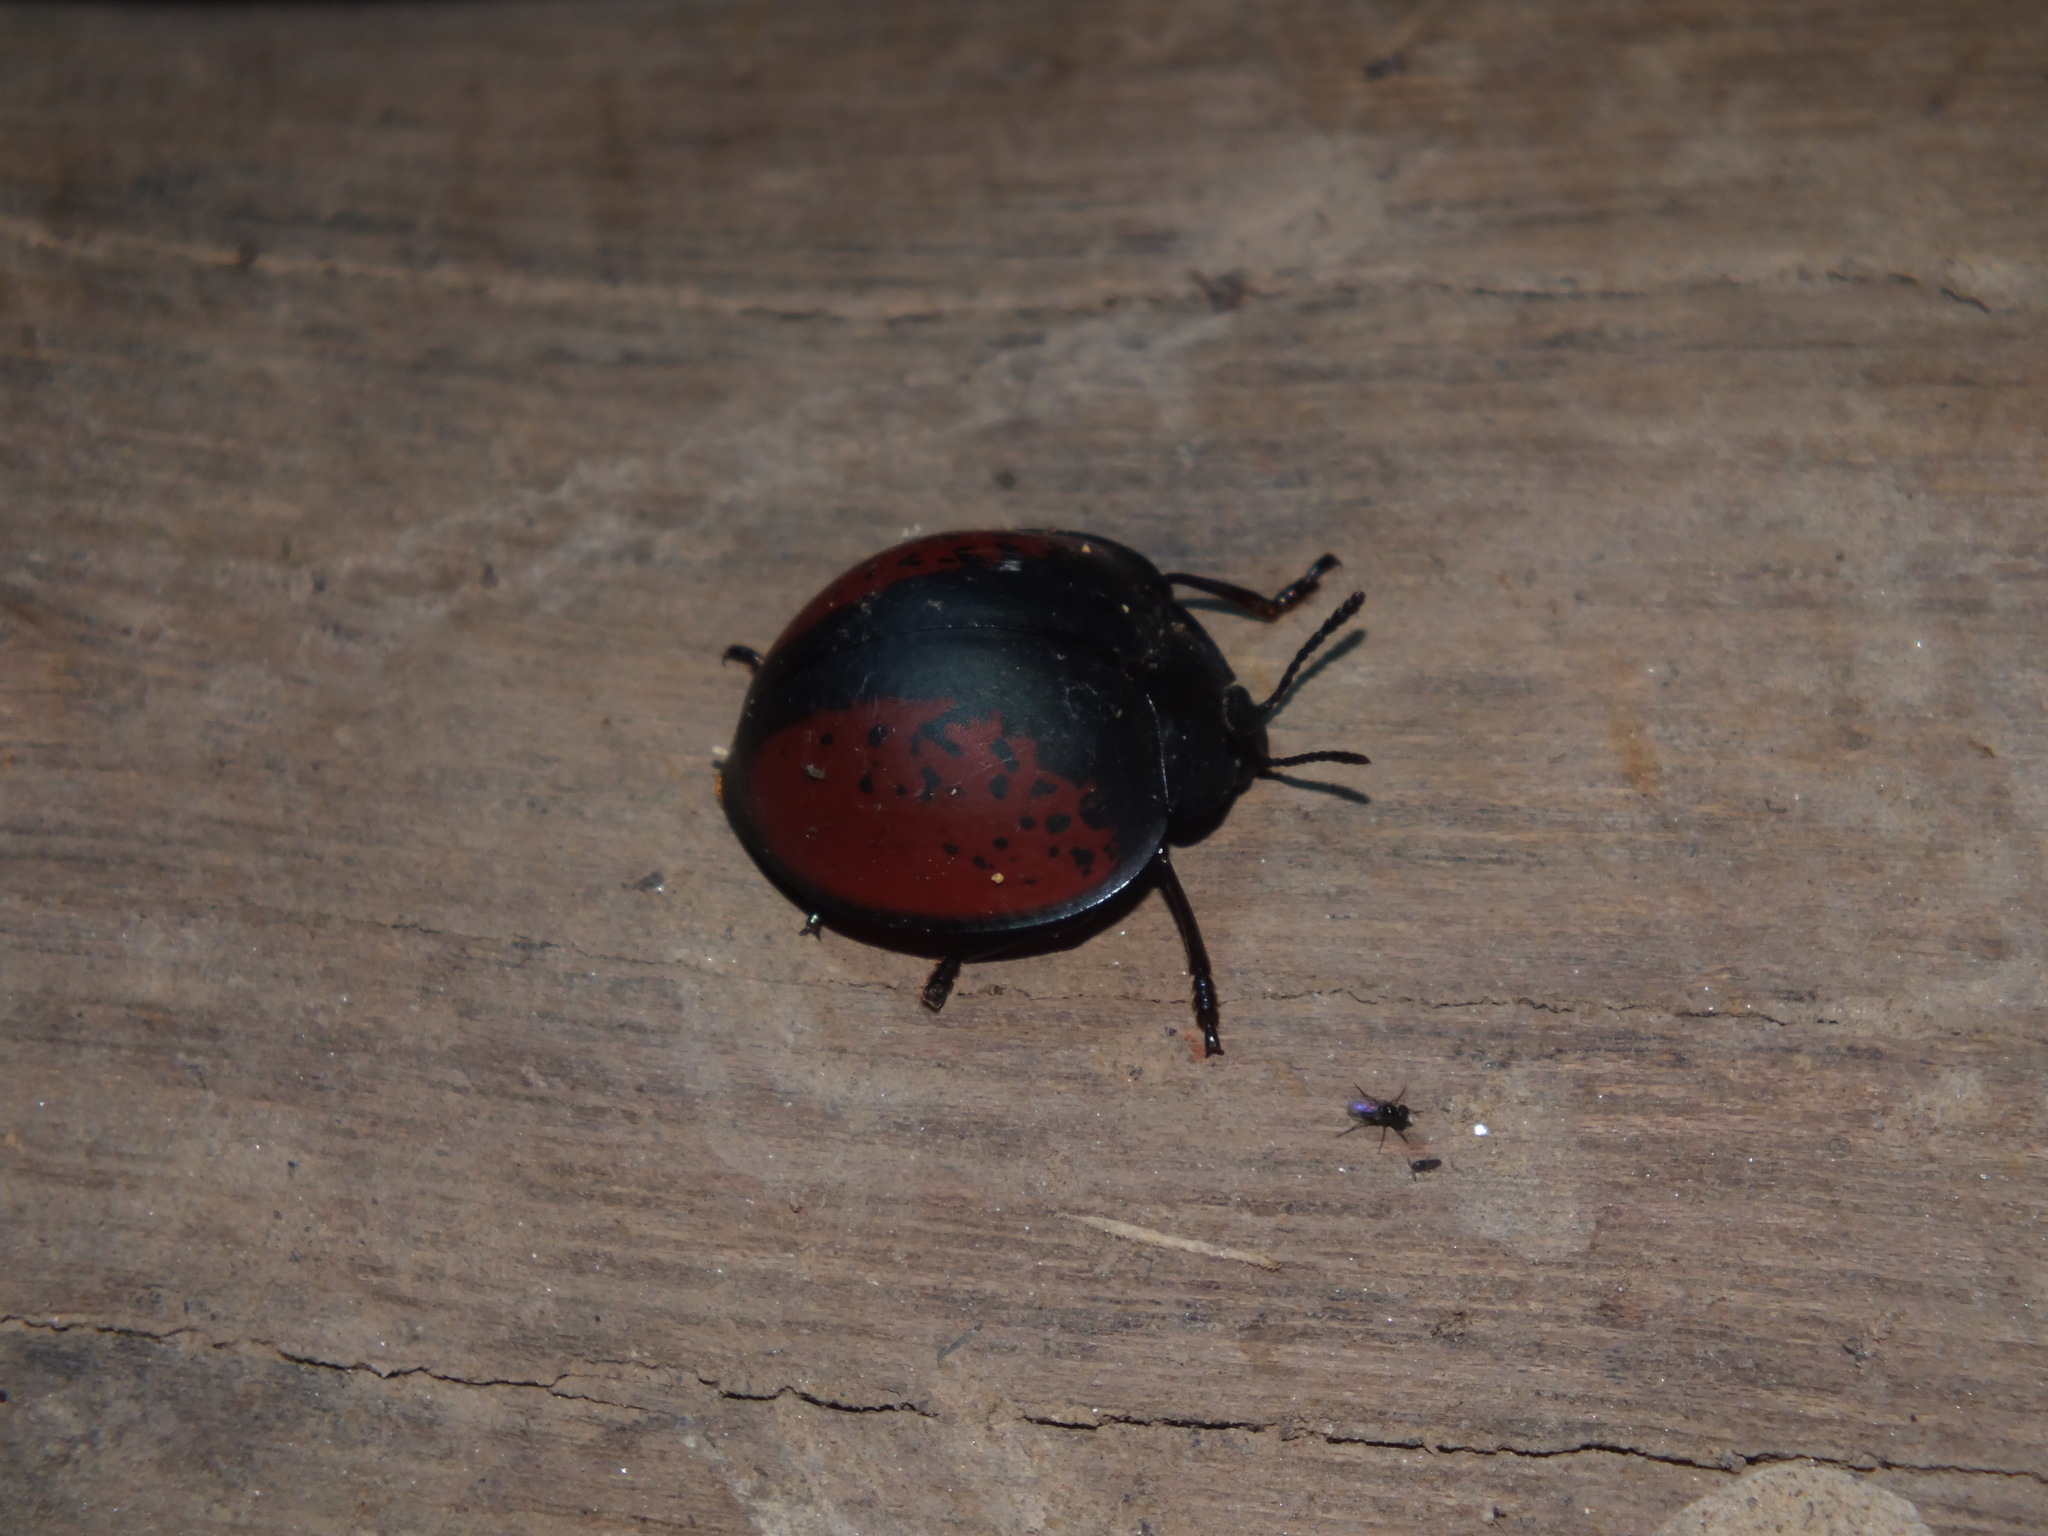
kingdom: Animalia
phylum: Arthropoda
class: Insecta
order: Coleoptera
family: Erotylidae
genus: Aegithus
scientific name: Aegithus
